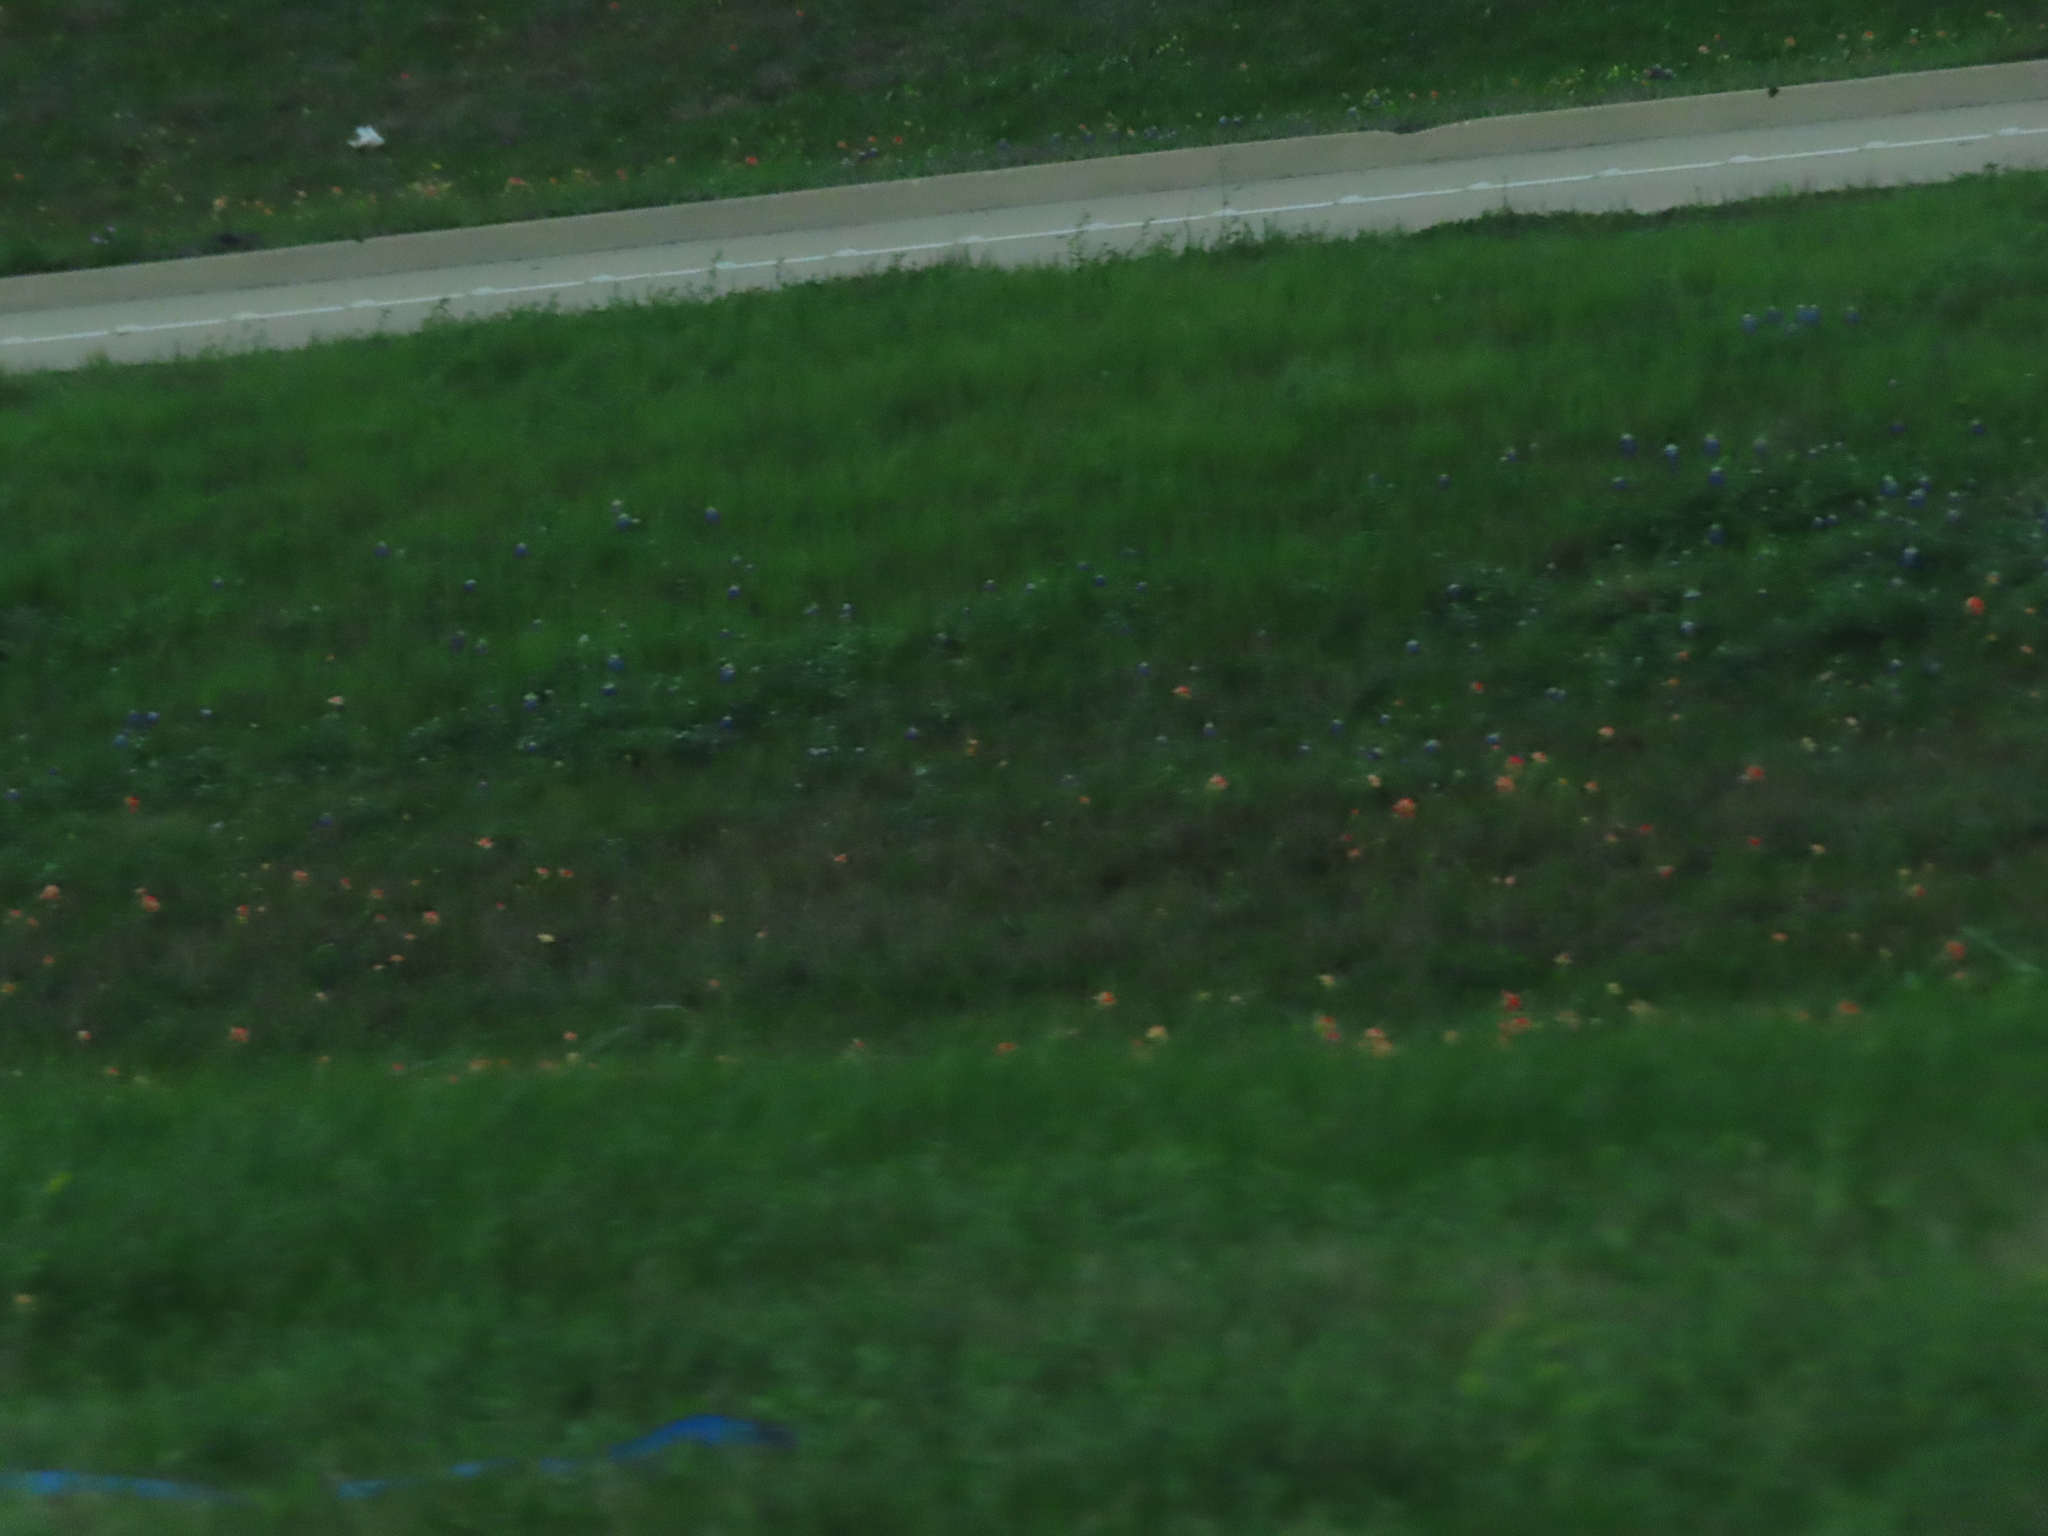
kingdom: Plantae
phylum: Tracheophyta
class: Magnoliopsida
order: Lamiales
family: Orobanchaceae
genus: Castilleja
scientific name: Castilleja indivisa
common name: Texas paintbrush
